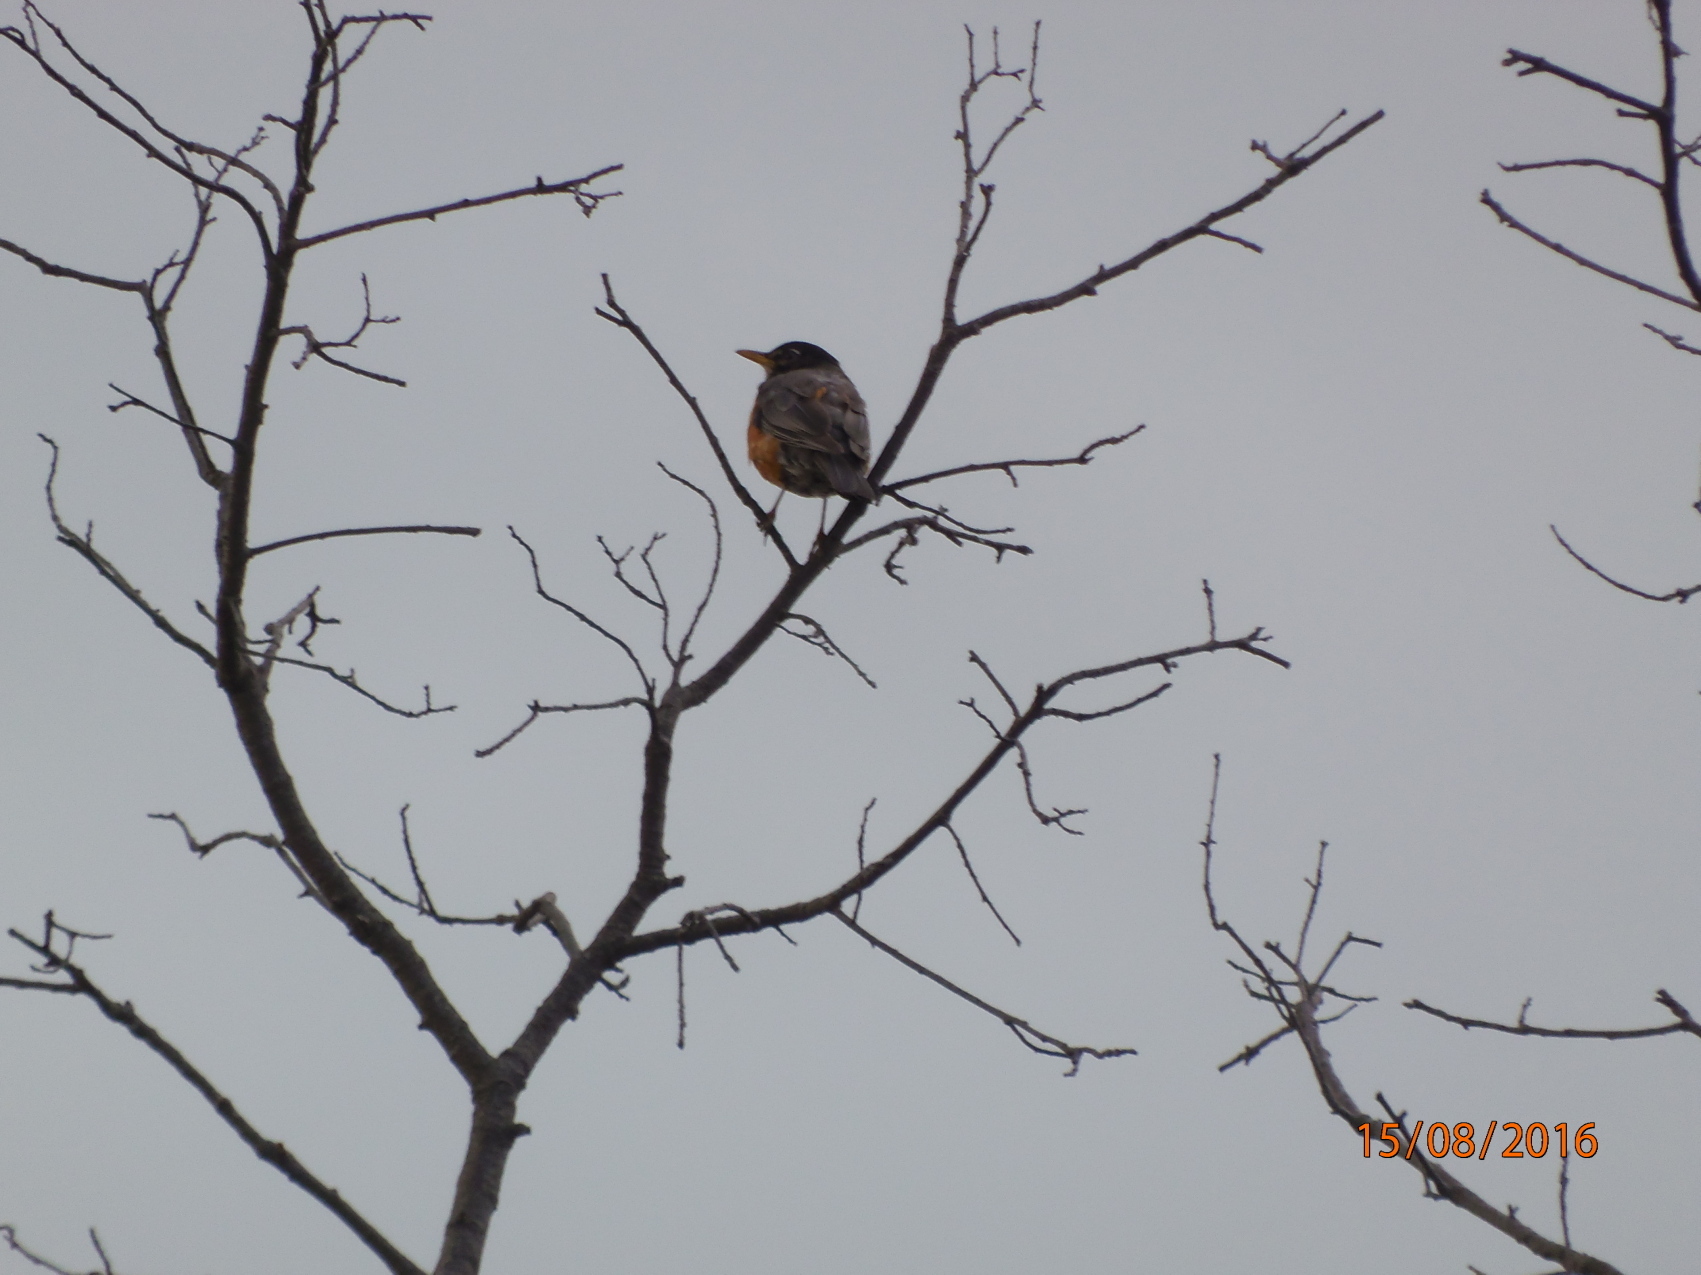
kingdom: Animalia
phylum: Chordata
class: Aves
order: Passeriformes
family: Turdidae
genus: Turdus
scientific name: Turdus migratorius
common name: American robin
